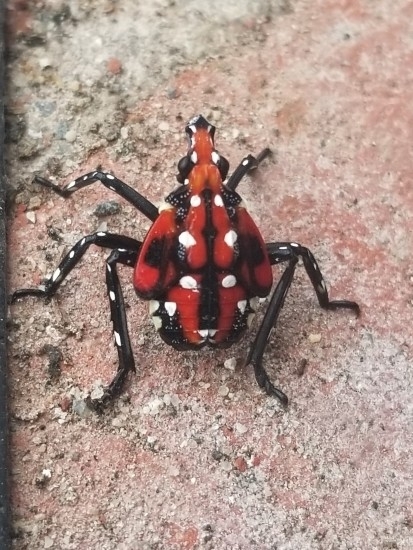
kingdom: Animalia
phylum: Arthropoda
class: Insecta
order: Hemiptera
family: Fulgoridae
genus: Lycorma
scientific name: Lycorma delicatula
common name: Spotted lanternfly
